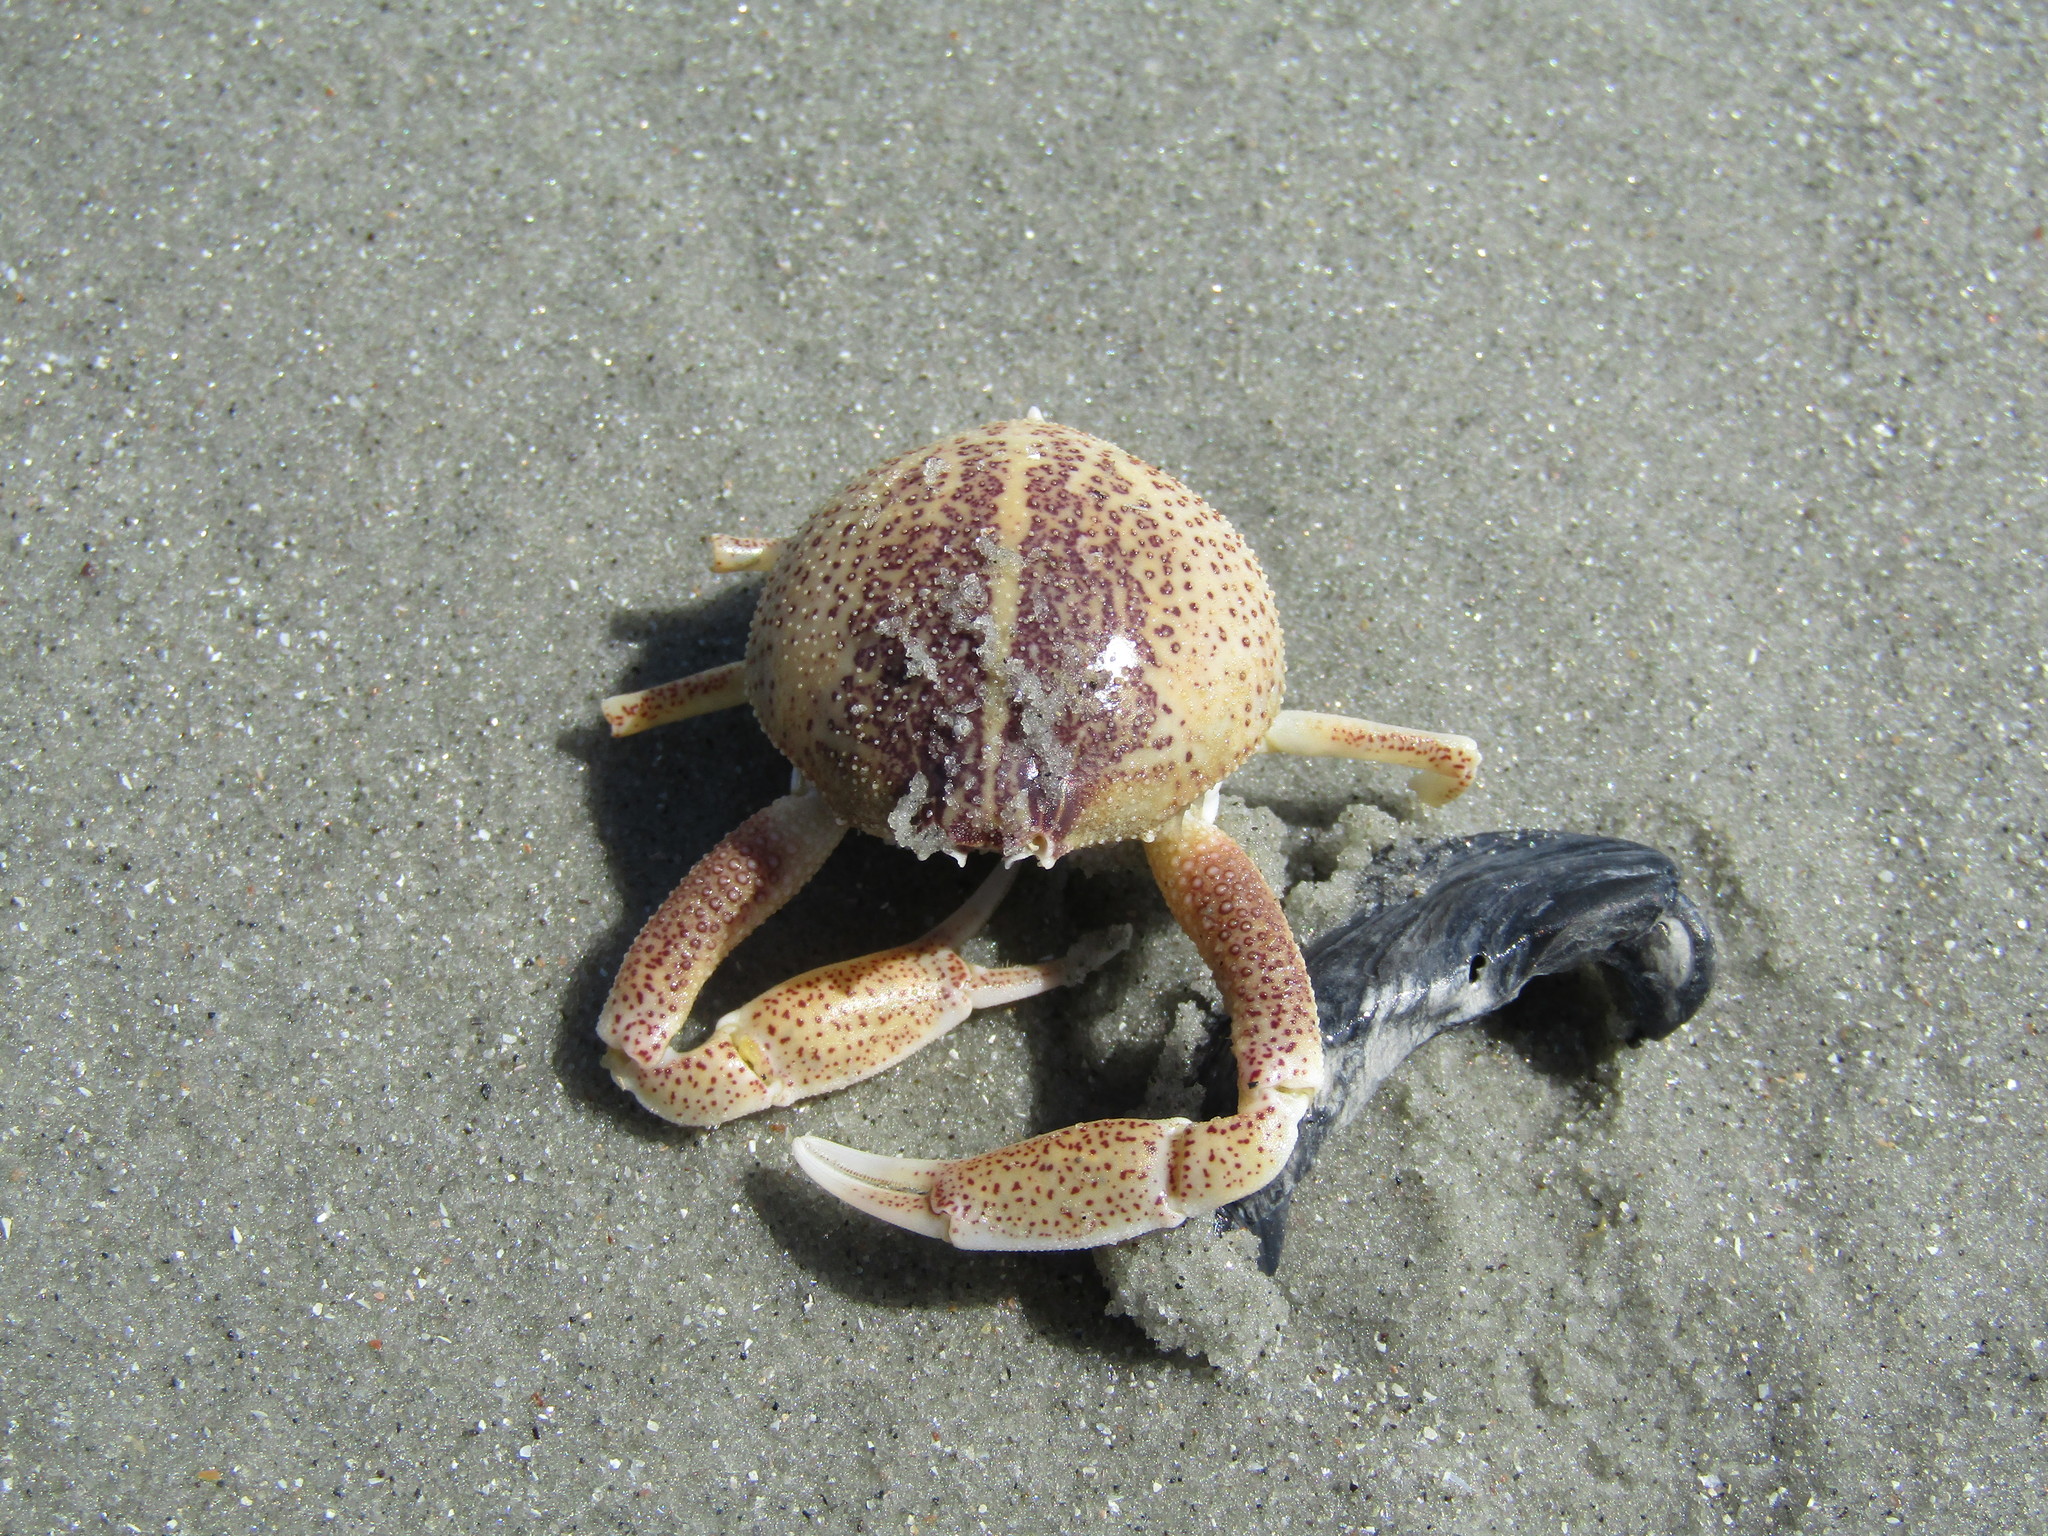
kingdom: Animalia
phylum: Arthropoda
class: Malacostraca
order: Decapoda
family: Leucosiidae
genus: Persephona
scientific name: Persephona aquilonaris
